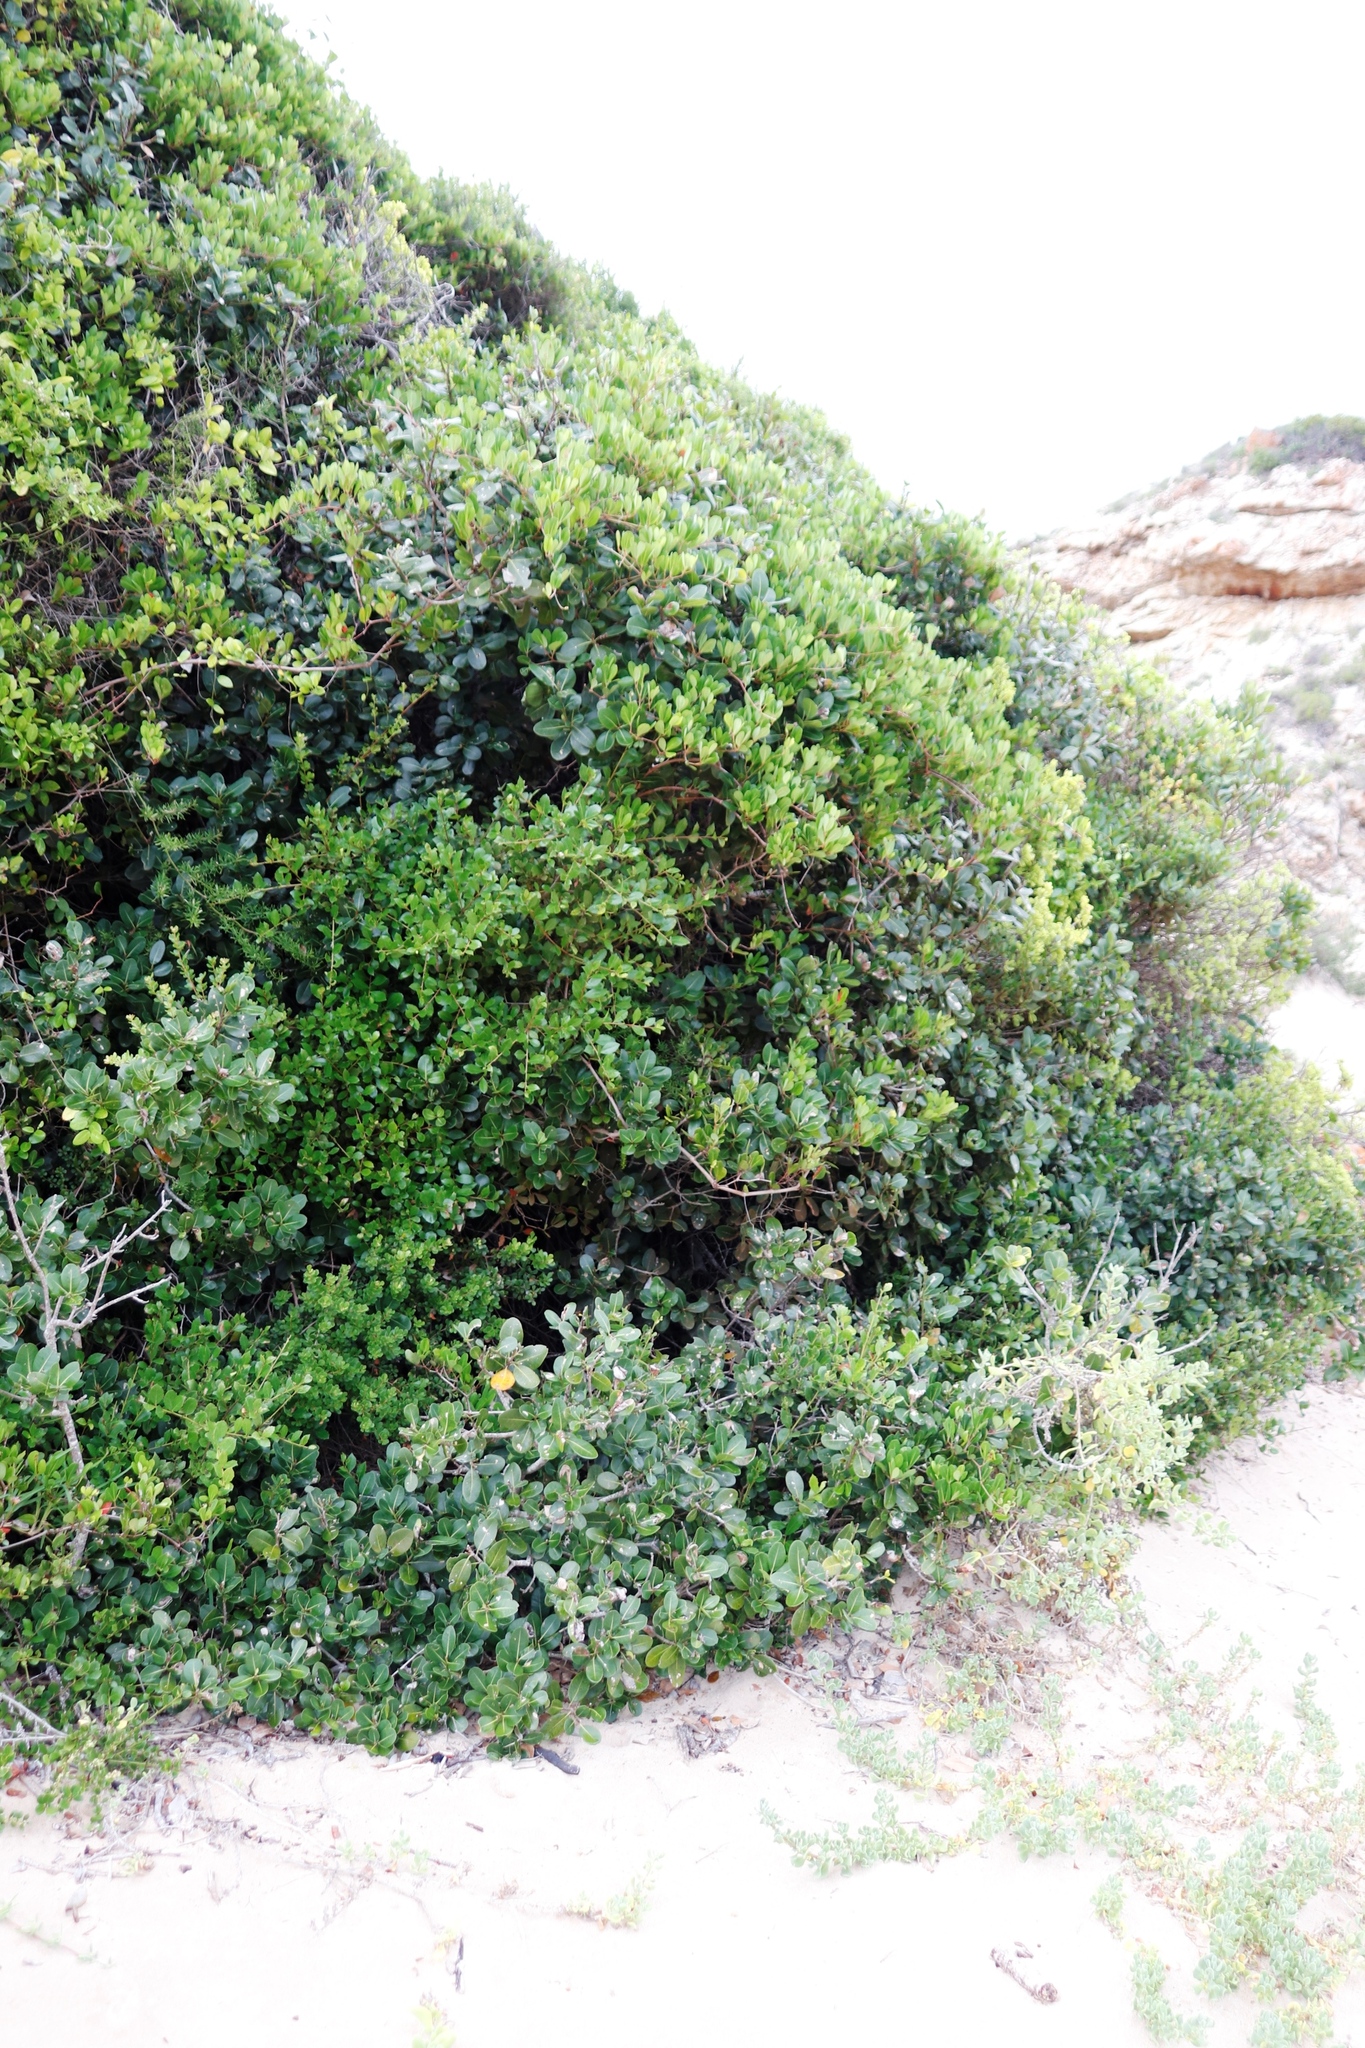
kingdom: Plantae
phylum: Tracheophyta
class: Magnoliopsida
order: Ericales
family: Sapotaceae
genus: Sideroxylon
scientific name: Sideroxylon inerme
